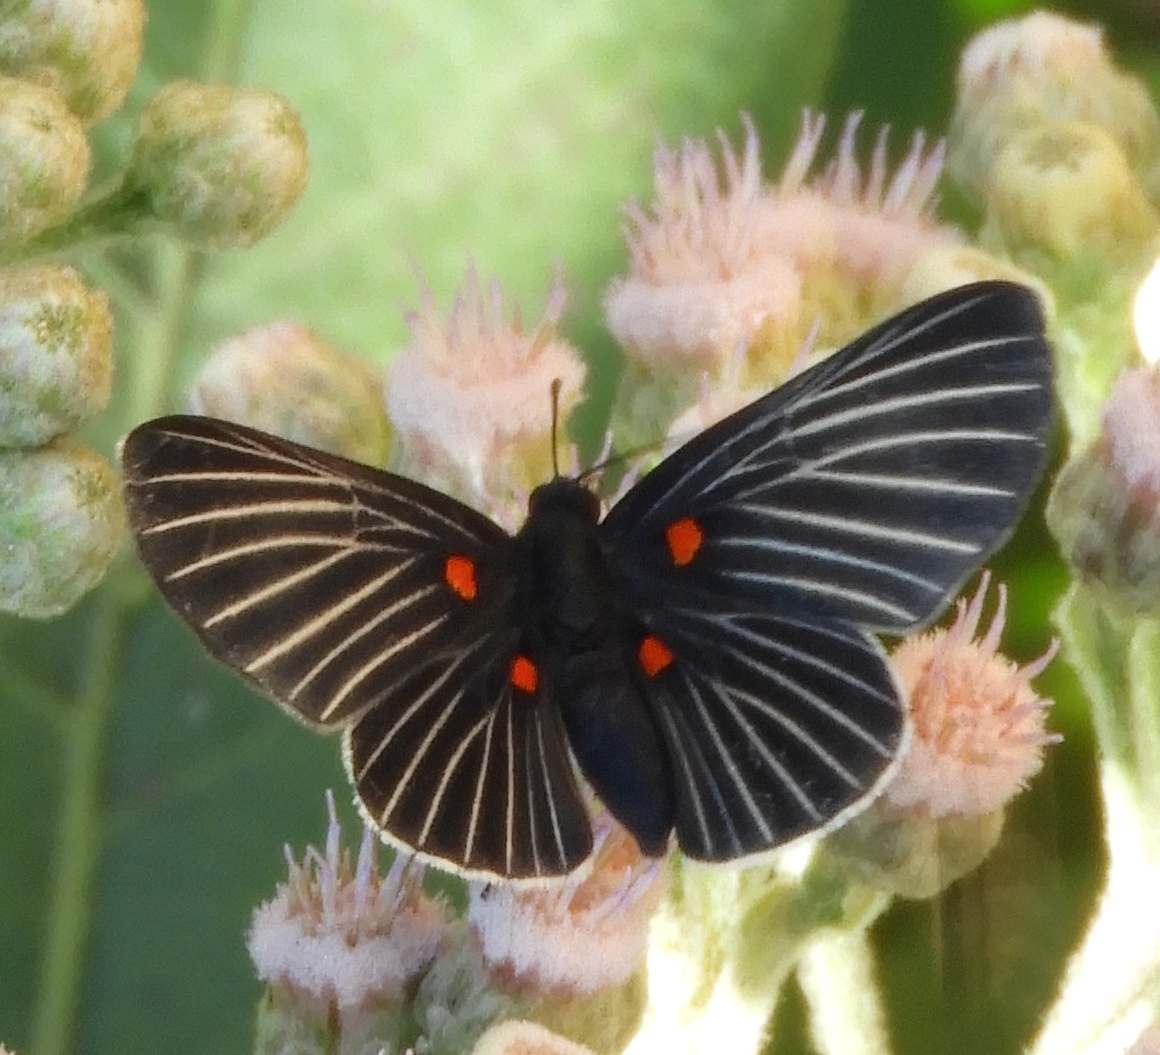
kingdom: Animalia
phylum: Arthropoda
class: Insecta
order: Lepidoptera
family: Lycaenidae
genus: Melanis
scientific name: Melanis
